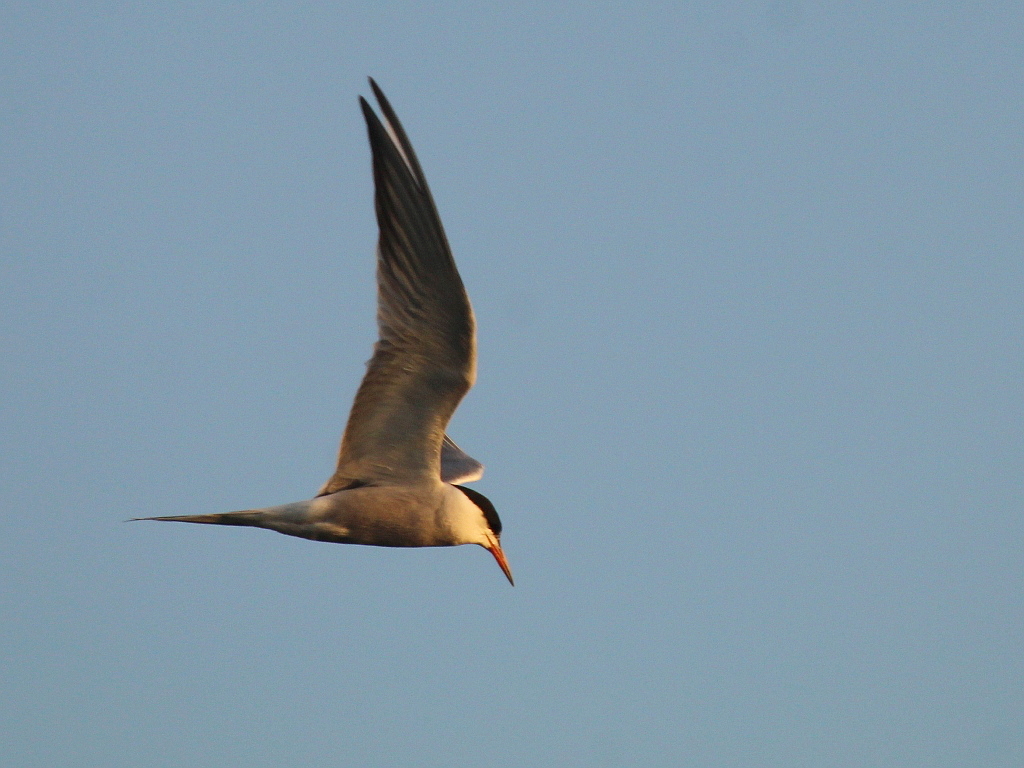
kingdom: Animalia
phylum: Chordata
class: Aves
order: Charadriiformes
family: Laridae
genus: Sterna
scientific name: Sterna hirundo
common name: Common tern
